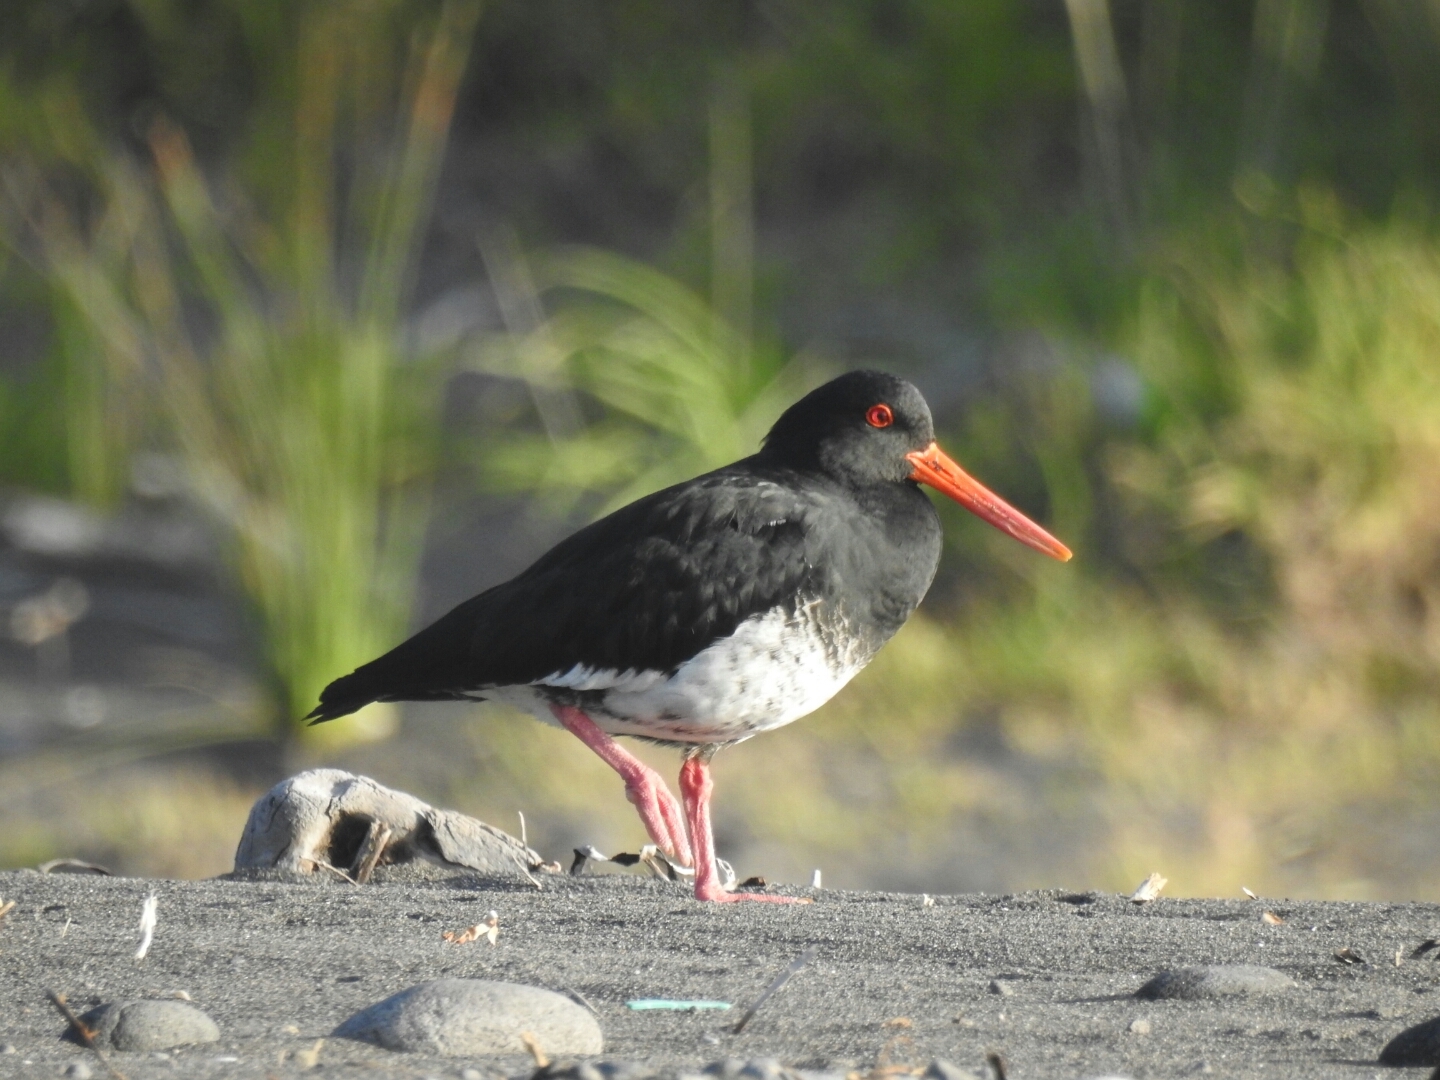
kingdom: Animalia
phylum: Chordata
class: Aves
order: Charadriiformes
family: Haematopodidae
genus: Haematopus
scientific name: Haematopus unicolor
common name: Variable oystercatcher
